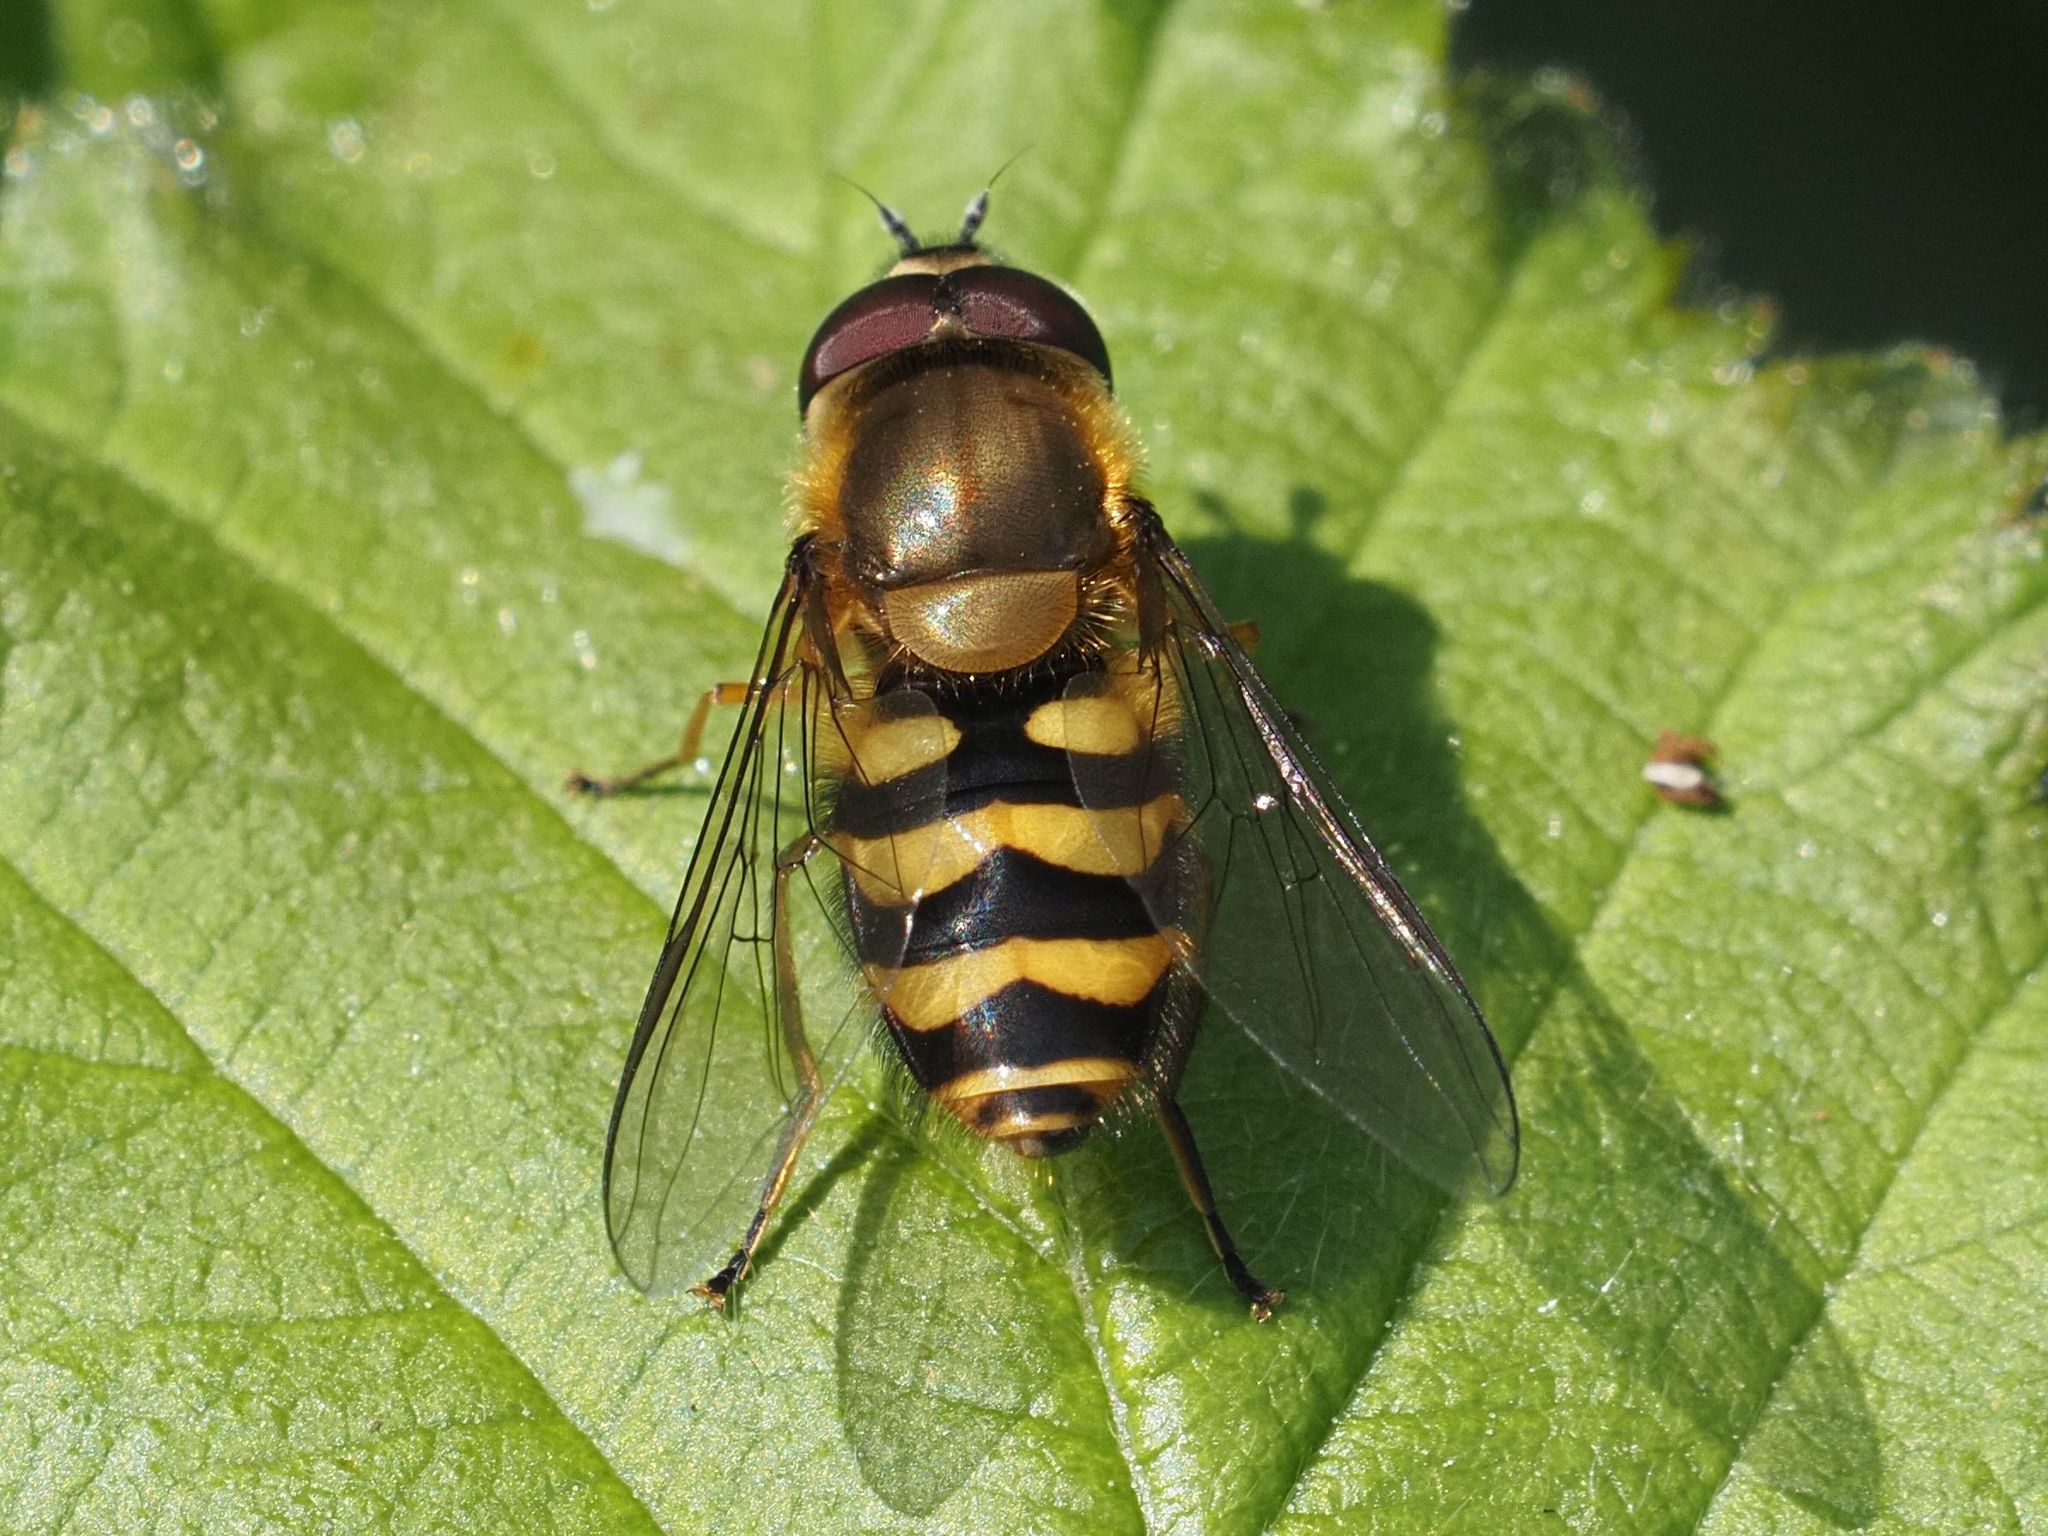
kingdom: Animalia
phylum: Arthropoda
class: Insecta
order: Diptera
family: Syrphidae
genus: Syrphus
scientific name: Syrphus torvus
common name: Hairy-eyed flower fly
